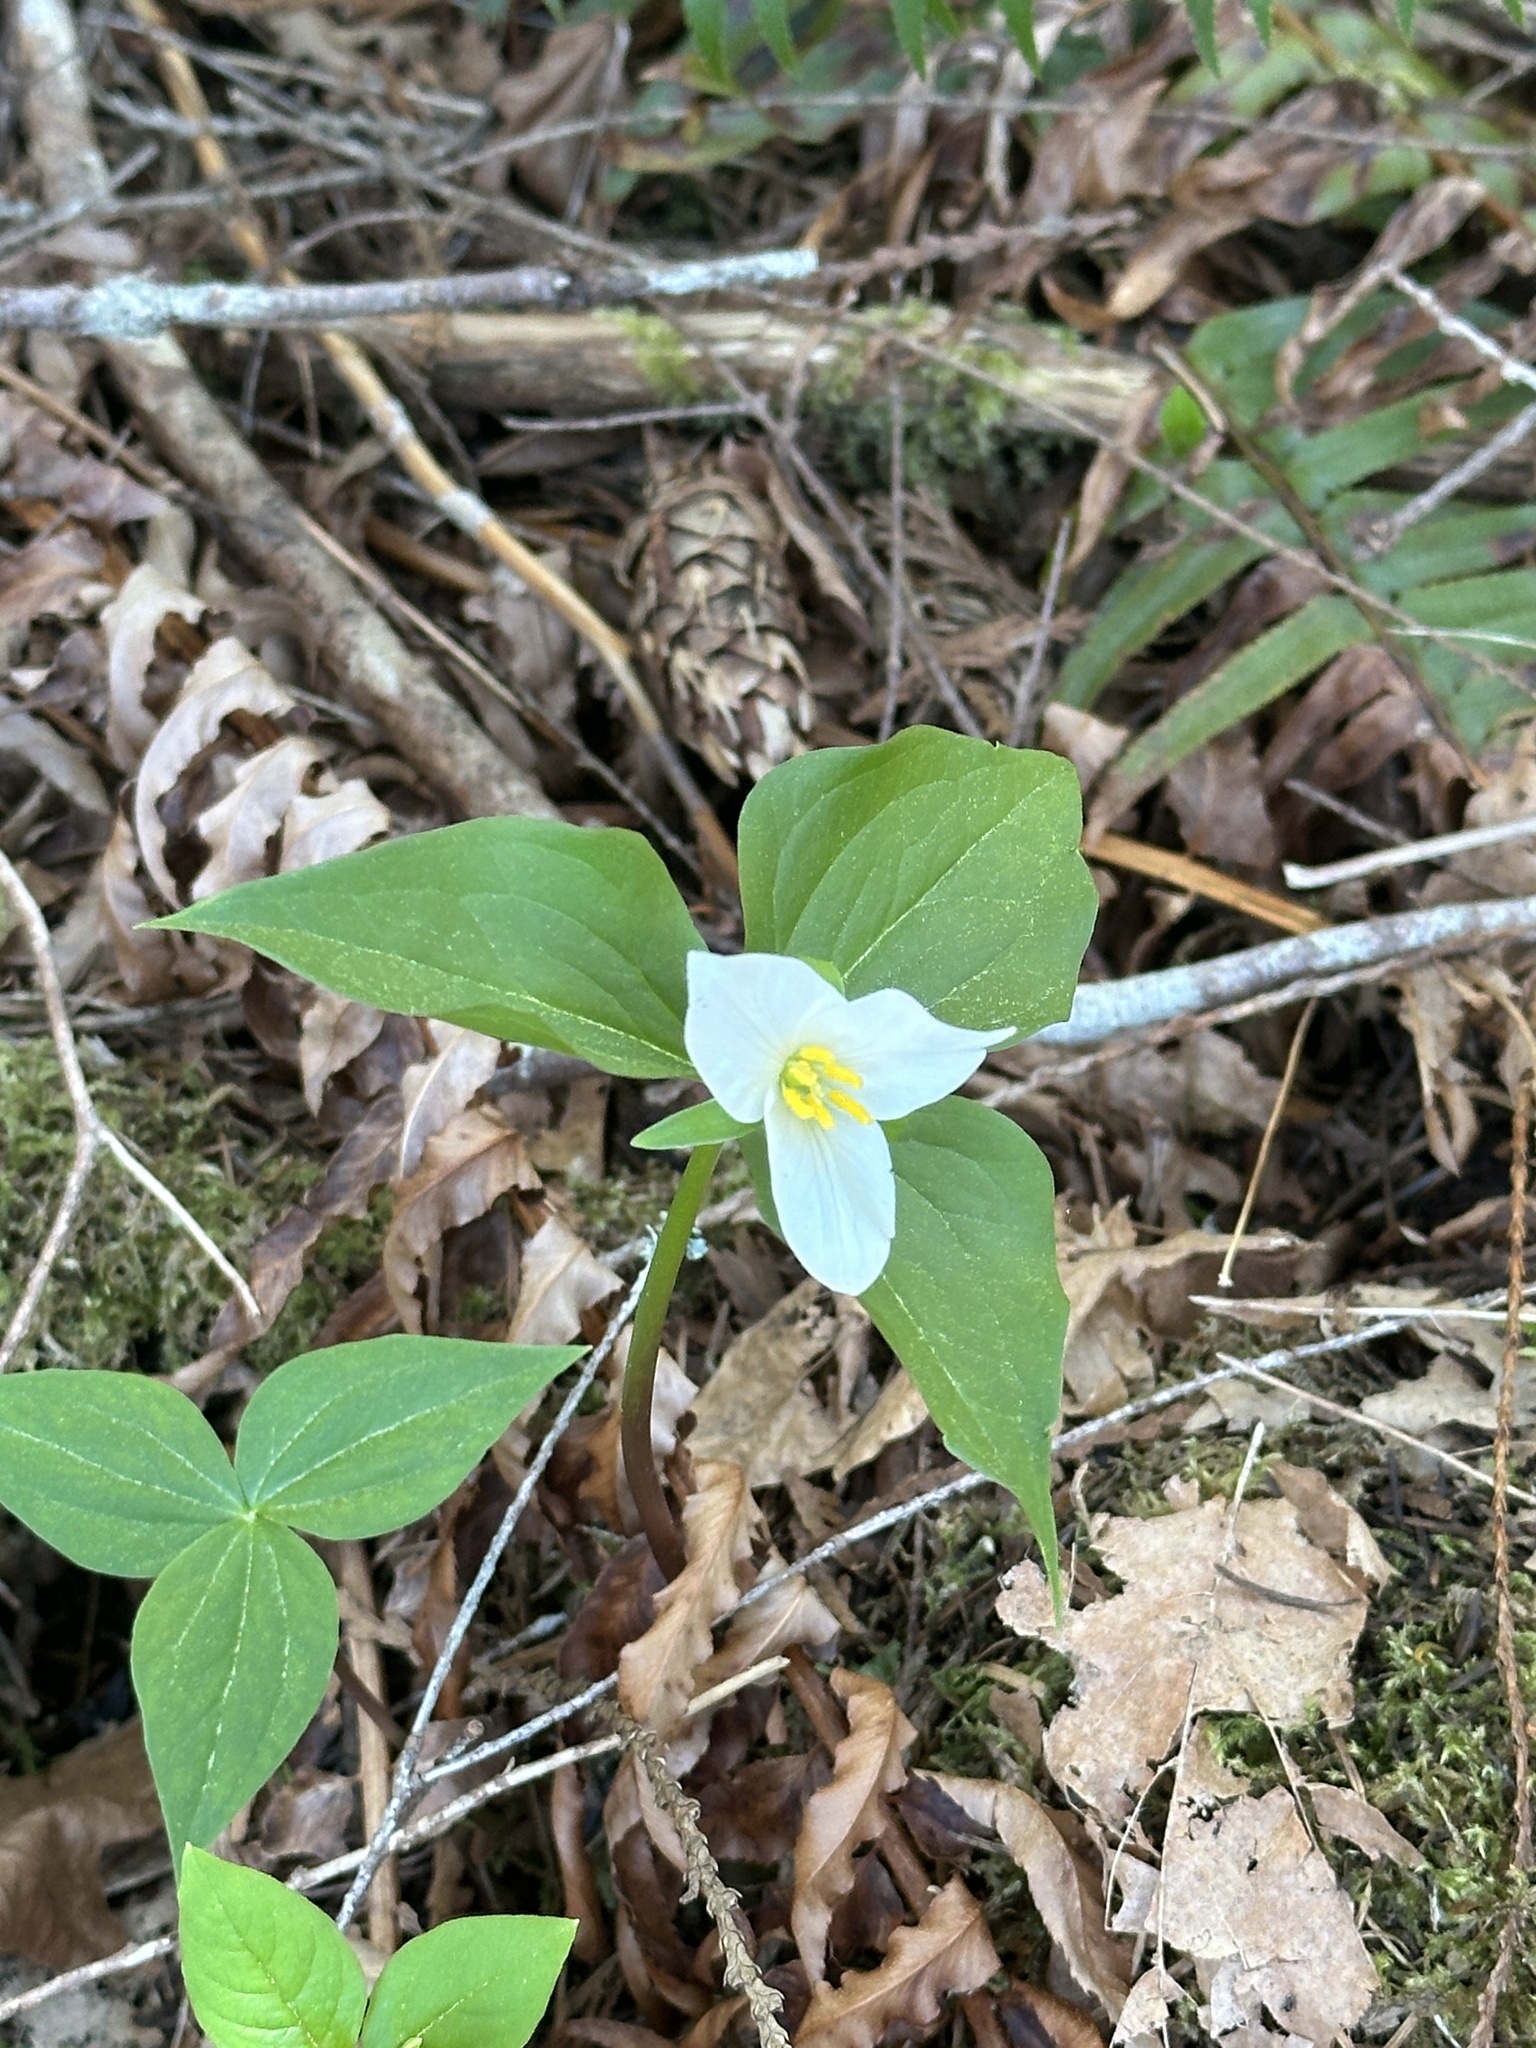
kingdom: Plantae
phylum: Tracheophyta
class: Liliopsida
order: Liliales
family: Melanthiaceae
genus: Trillium
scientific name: Trillium ovatum
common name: Pacific trillium
